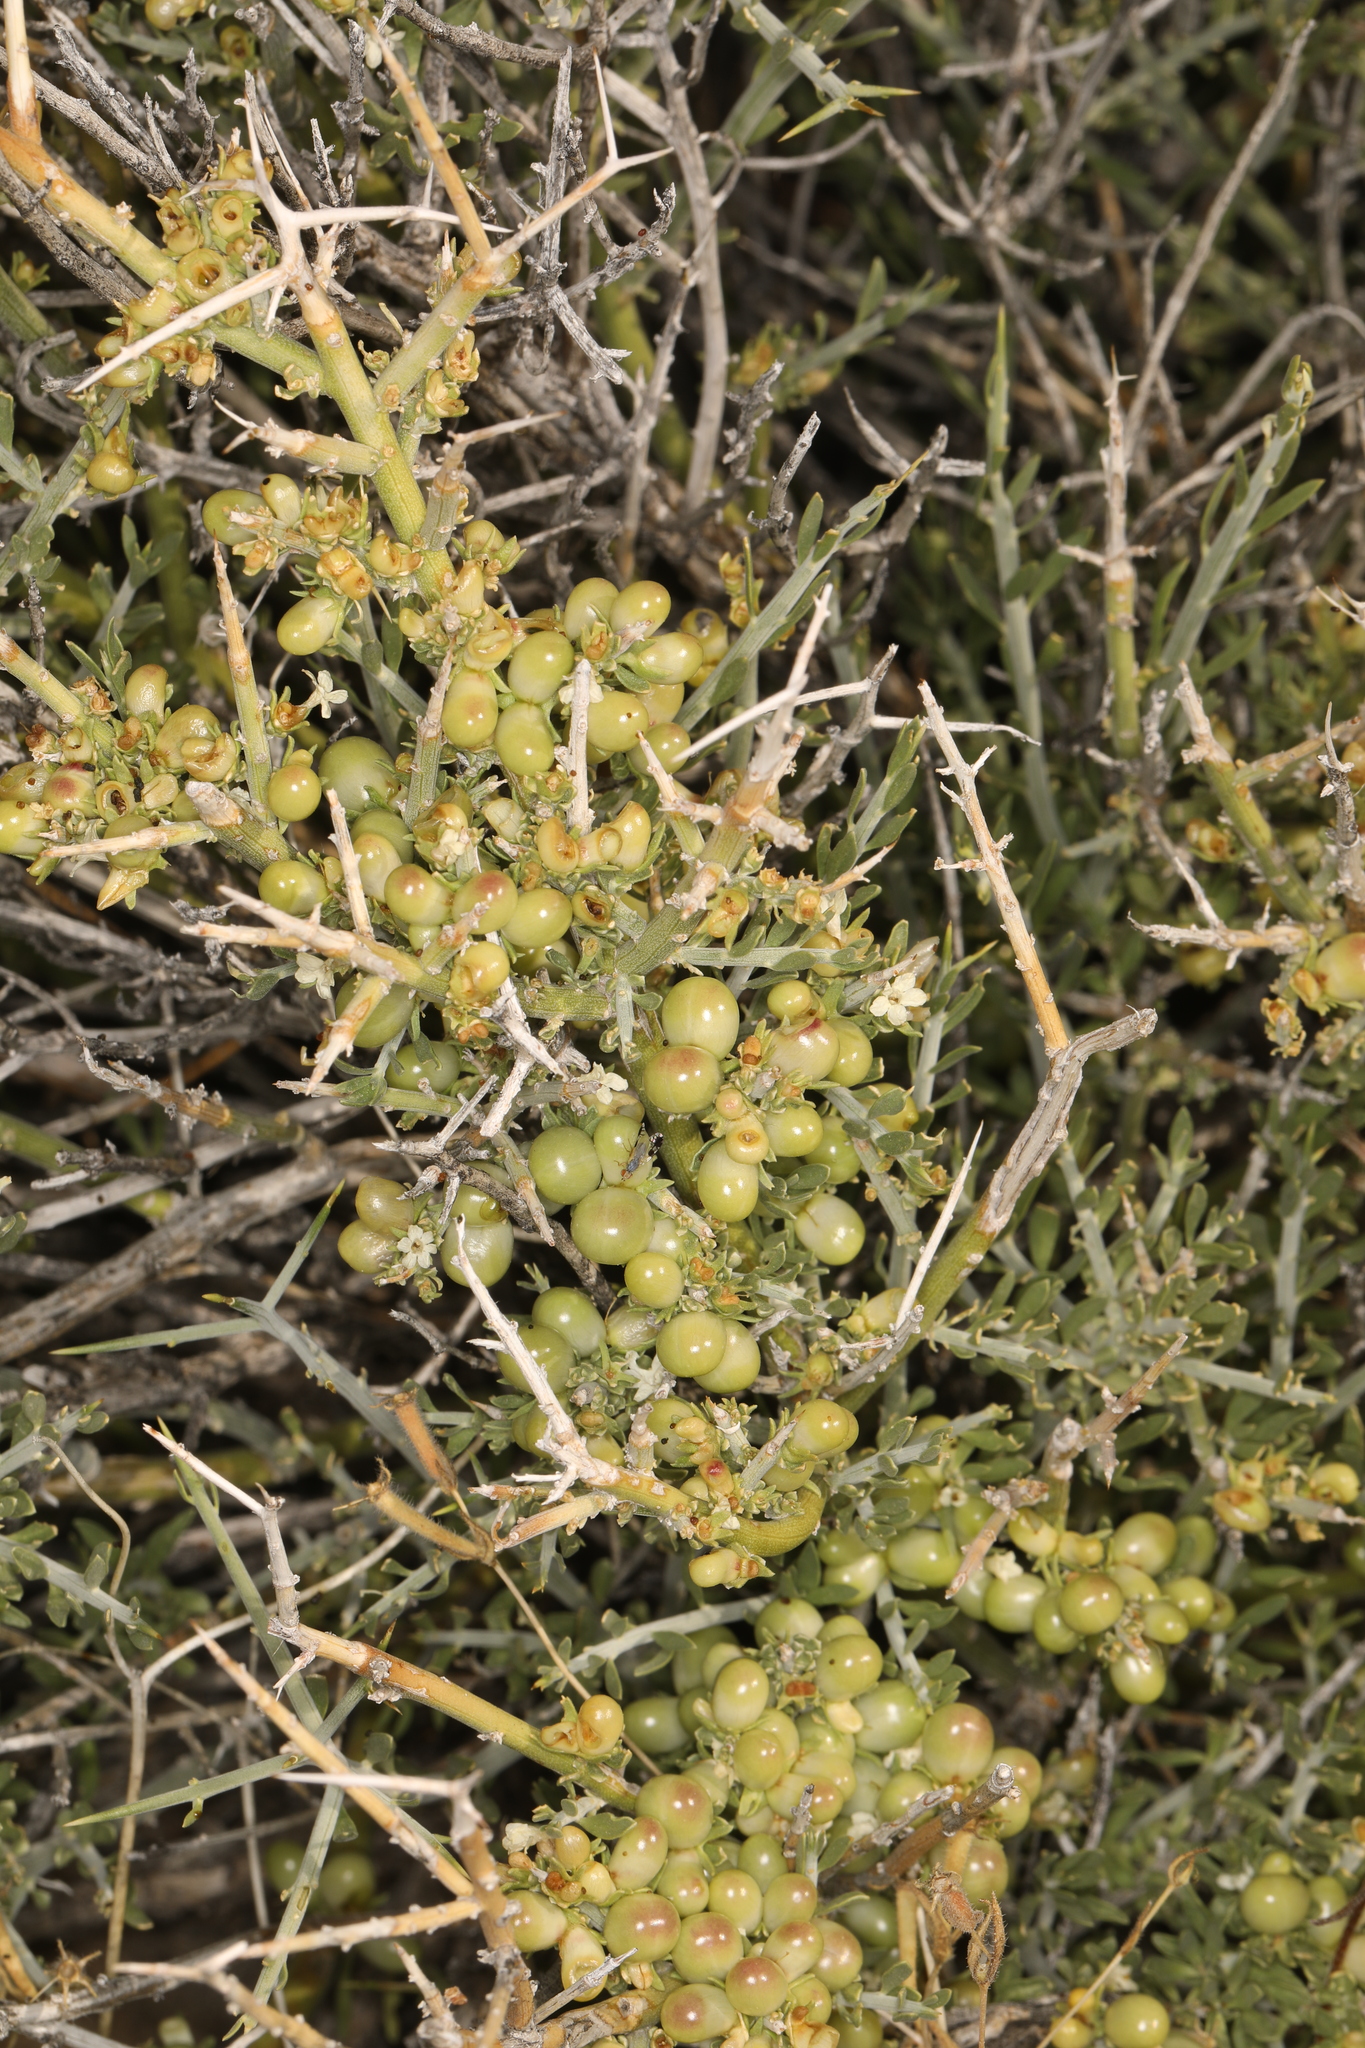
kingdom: Plantae
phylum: Tracheophyta
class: Magnoliopsida
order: Lamiales
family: Oleaceae
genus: Menodora
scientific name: Menodora spinescens
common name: Spiny menodora
